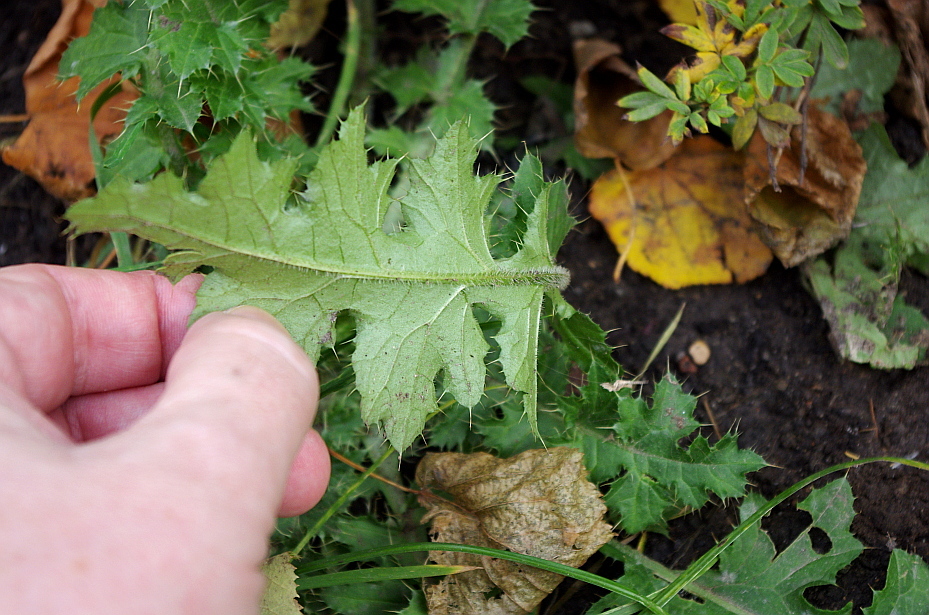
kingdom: Plantae
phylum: Tracheophyta
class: Magnoliopsida
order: Asterales
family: Asteraceae
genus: Carduus
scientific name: Carduus crispus
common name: Welted thistle
